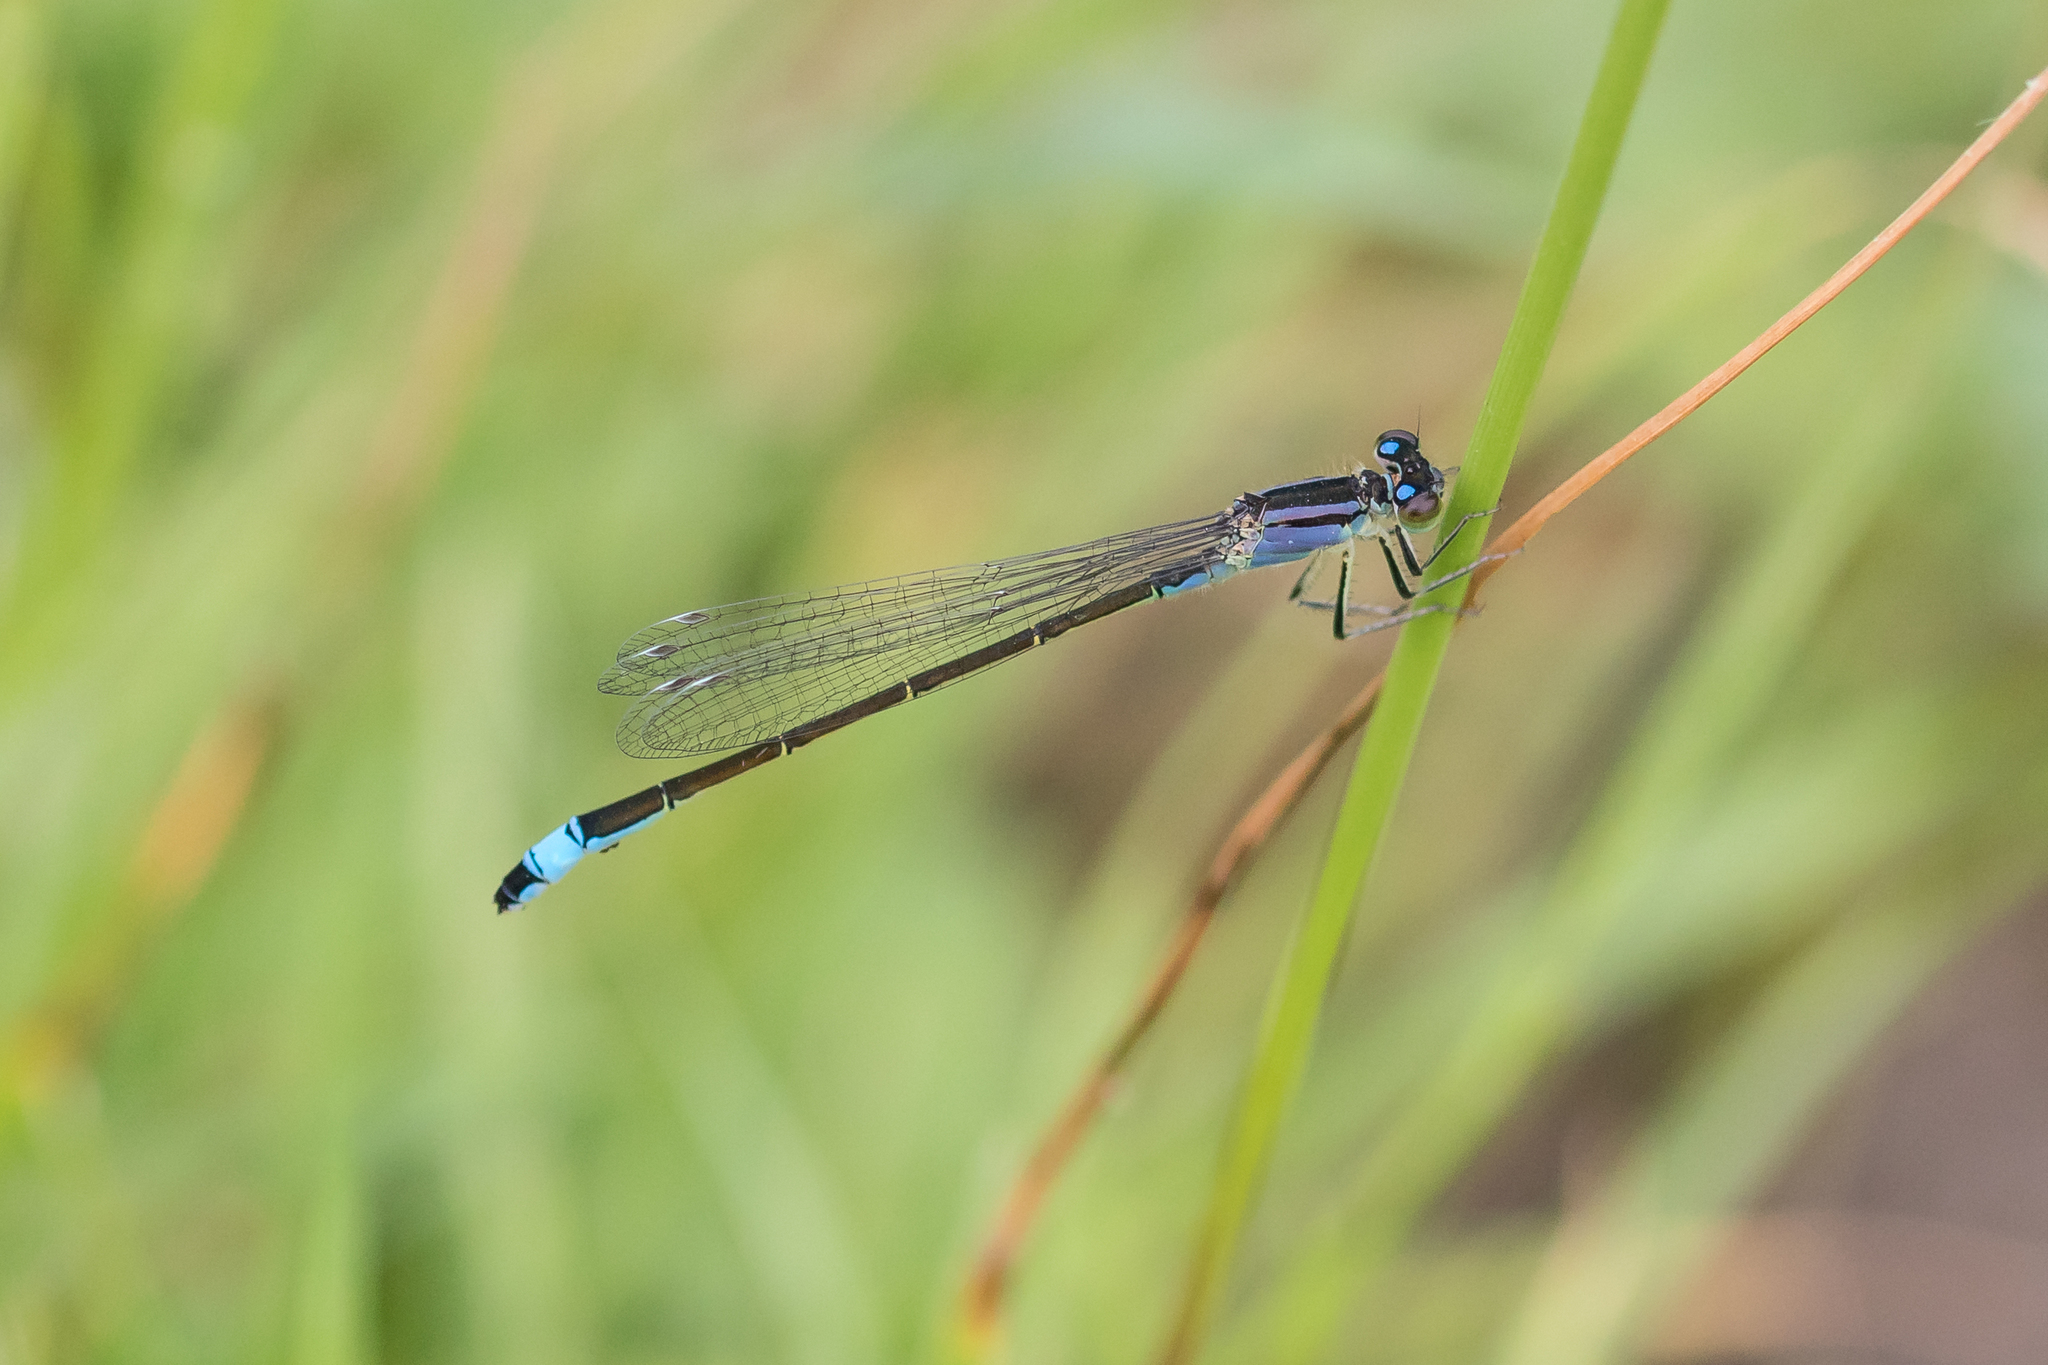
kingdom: Animalia
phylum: Arthropoda
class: Insecta
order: Odonata
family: Coenagrionidae
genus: Ischnura
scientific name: Ischnura elegans
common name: Blue-tailed damselfly
